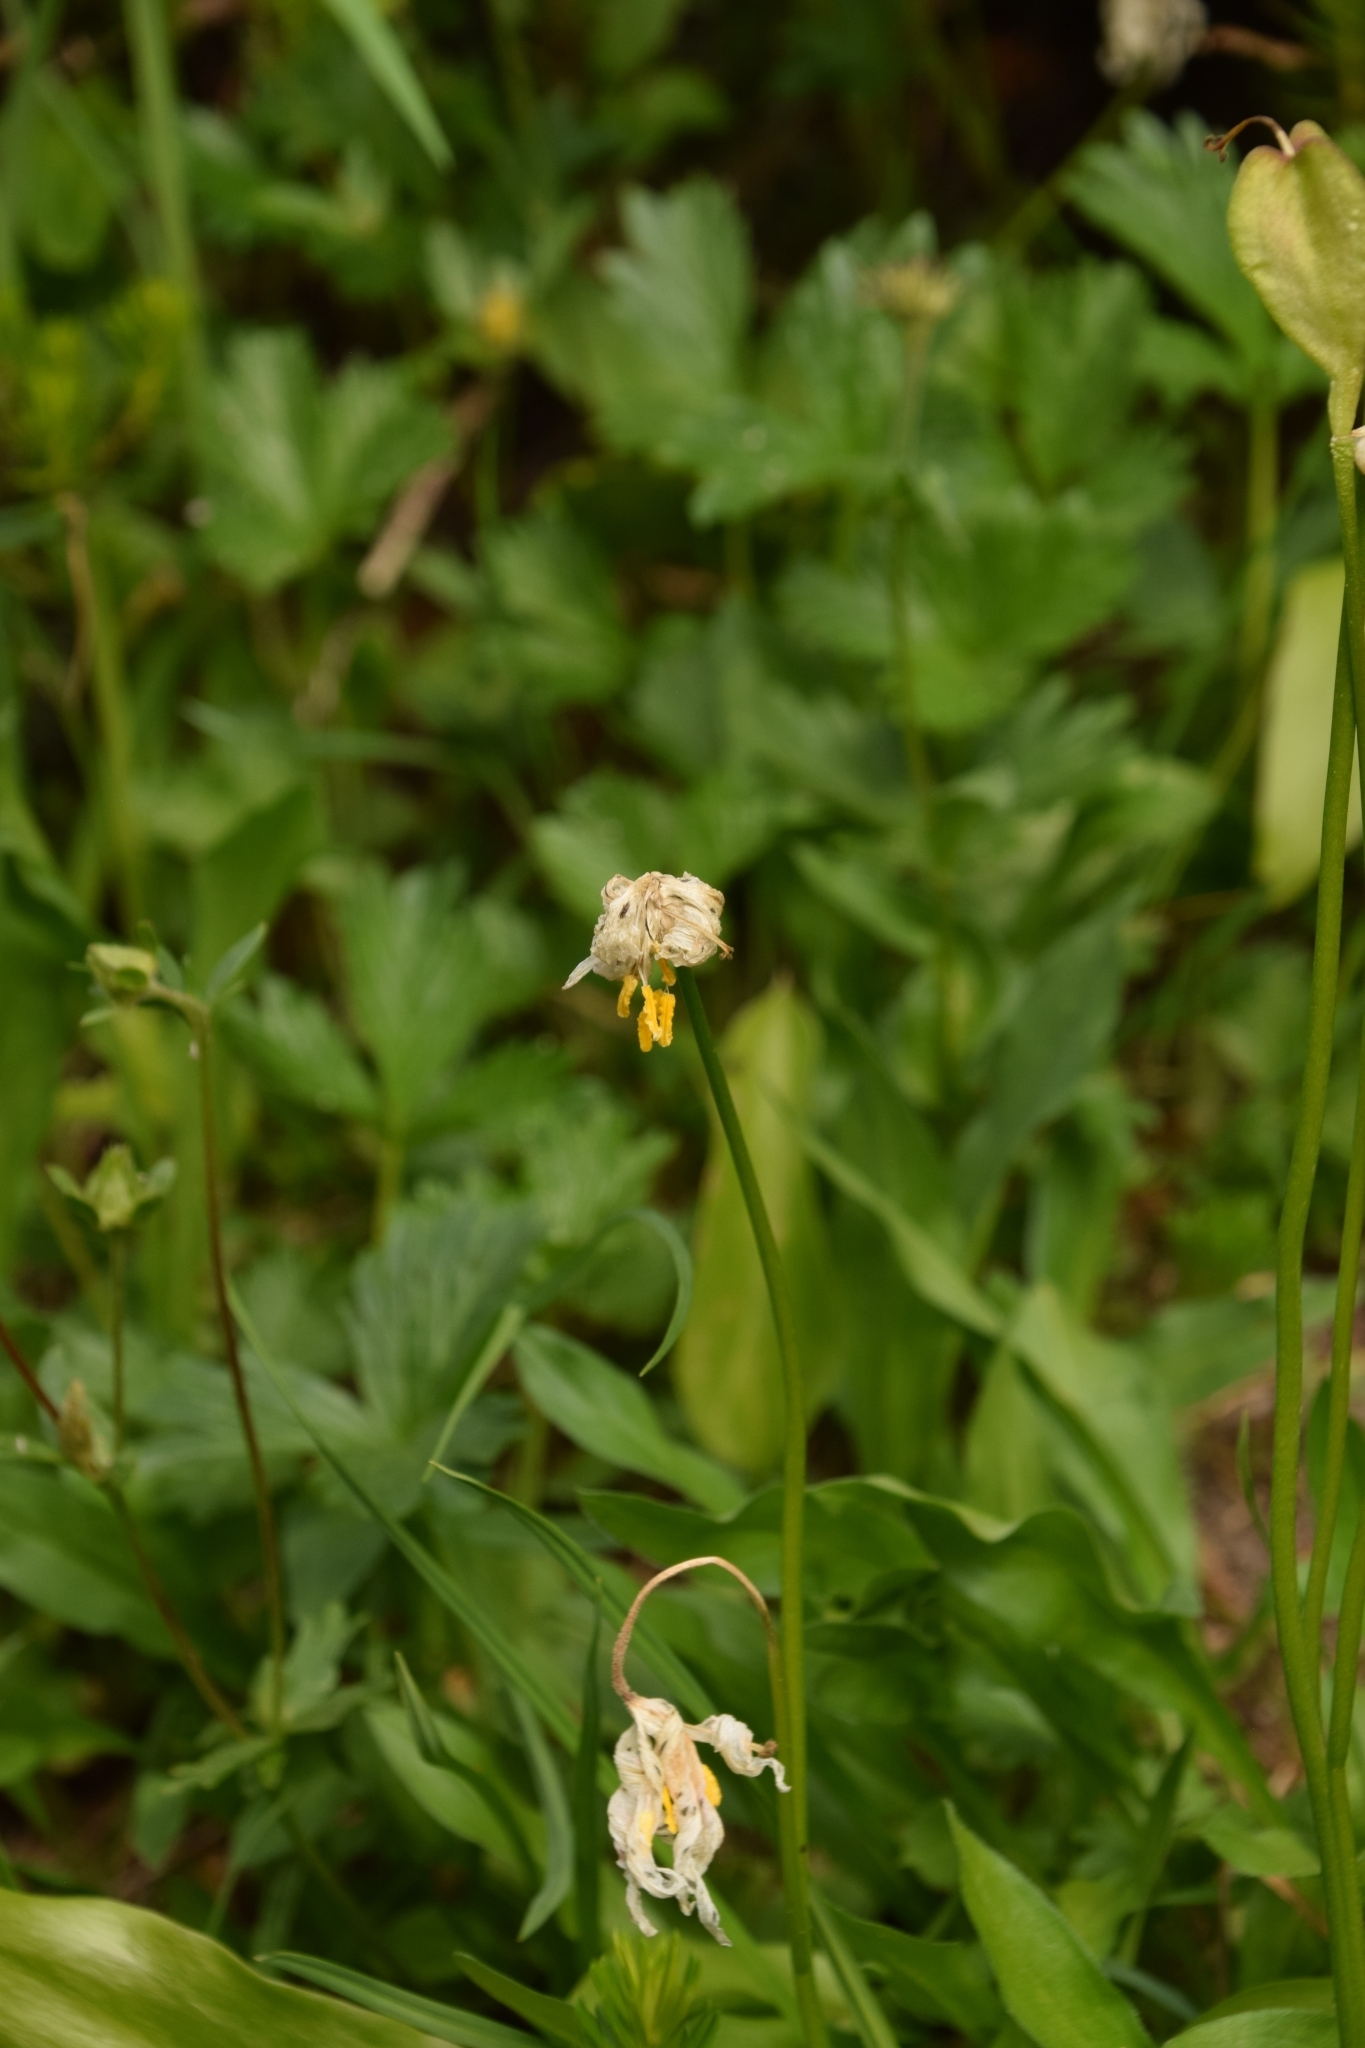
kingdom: Plantae
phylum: Tracheophyta
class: Liliopsida
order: Liliales
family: Liliaceae
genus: Erythronium
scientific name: Erythronium montanum
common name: Avalanche lily
